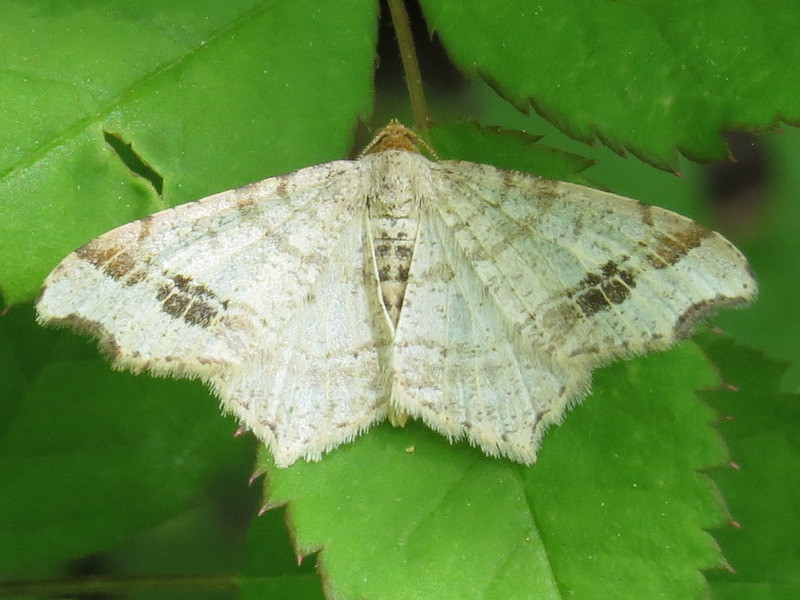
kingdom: Animalia
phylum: Arthropoda
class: Insecta
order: Lepidoptera
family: Geometridae
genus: Macaria
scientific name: Macaria aemulataria
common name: Common angle
